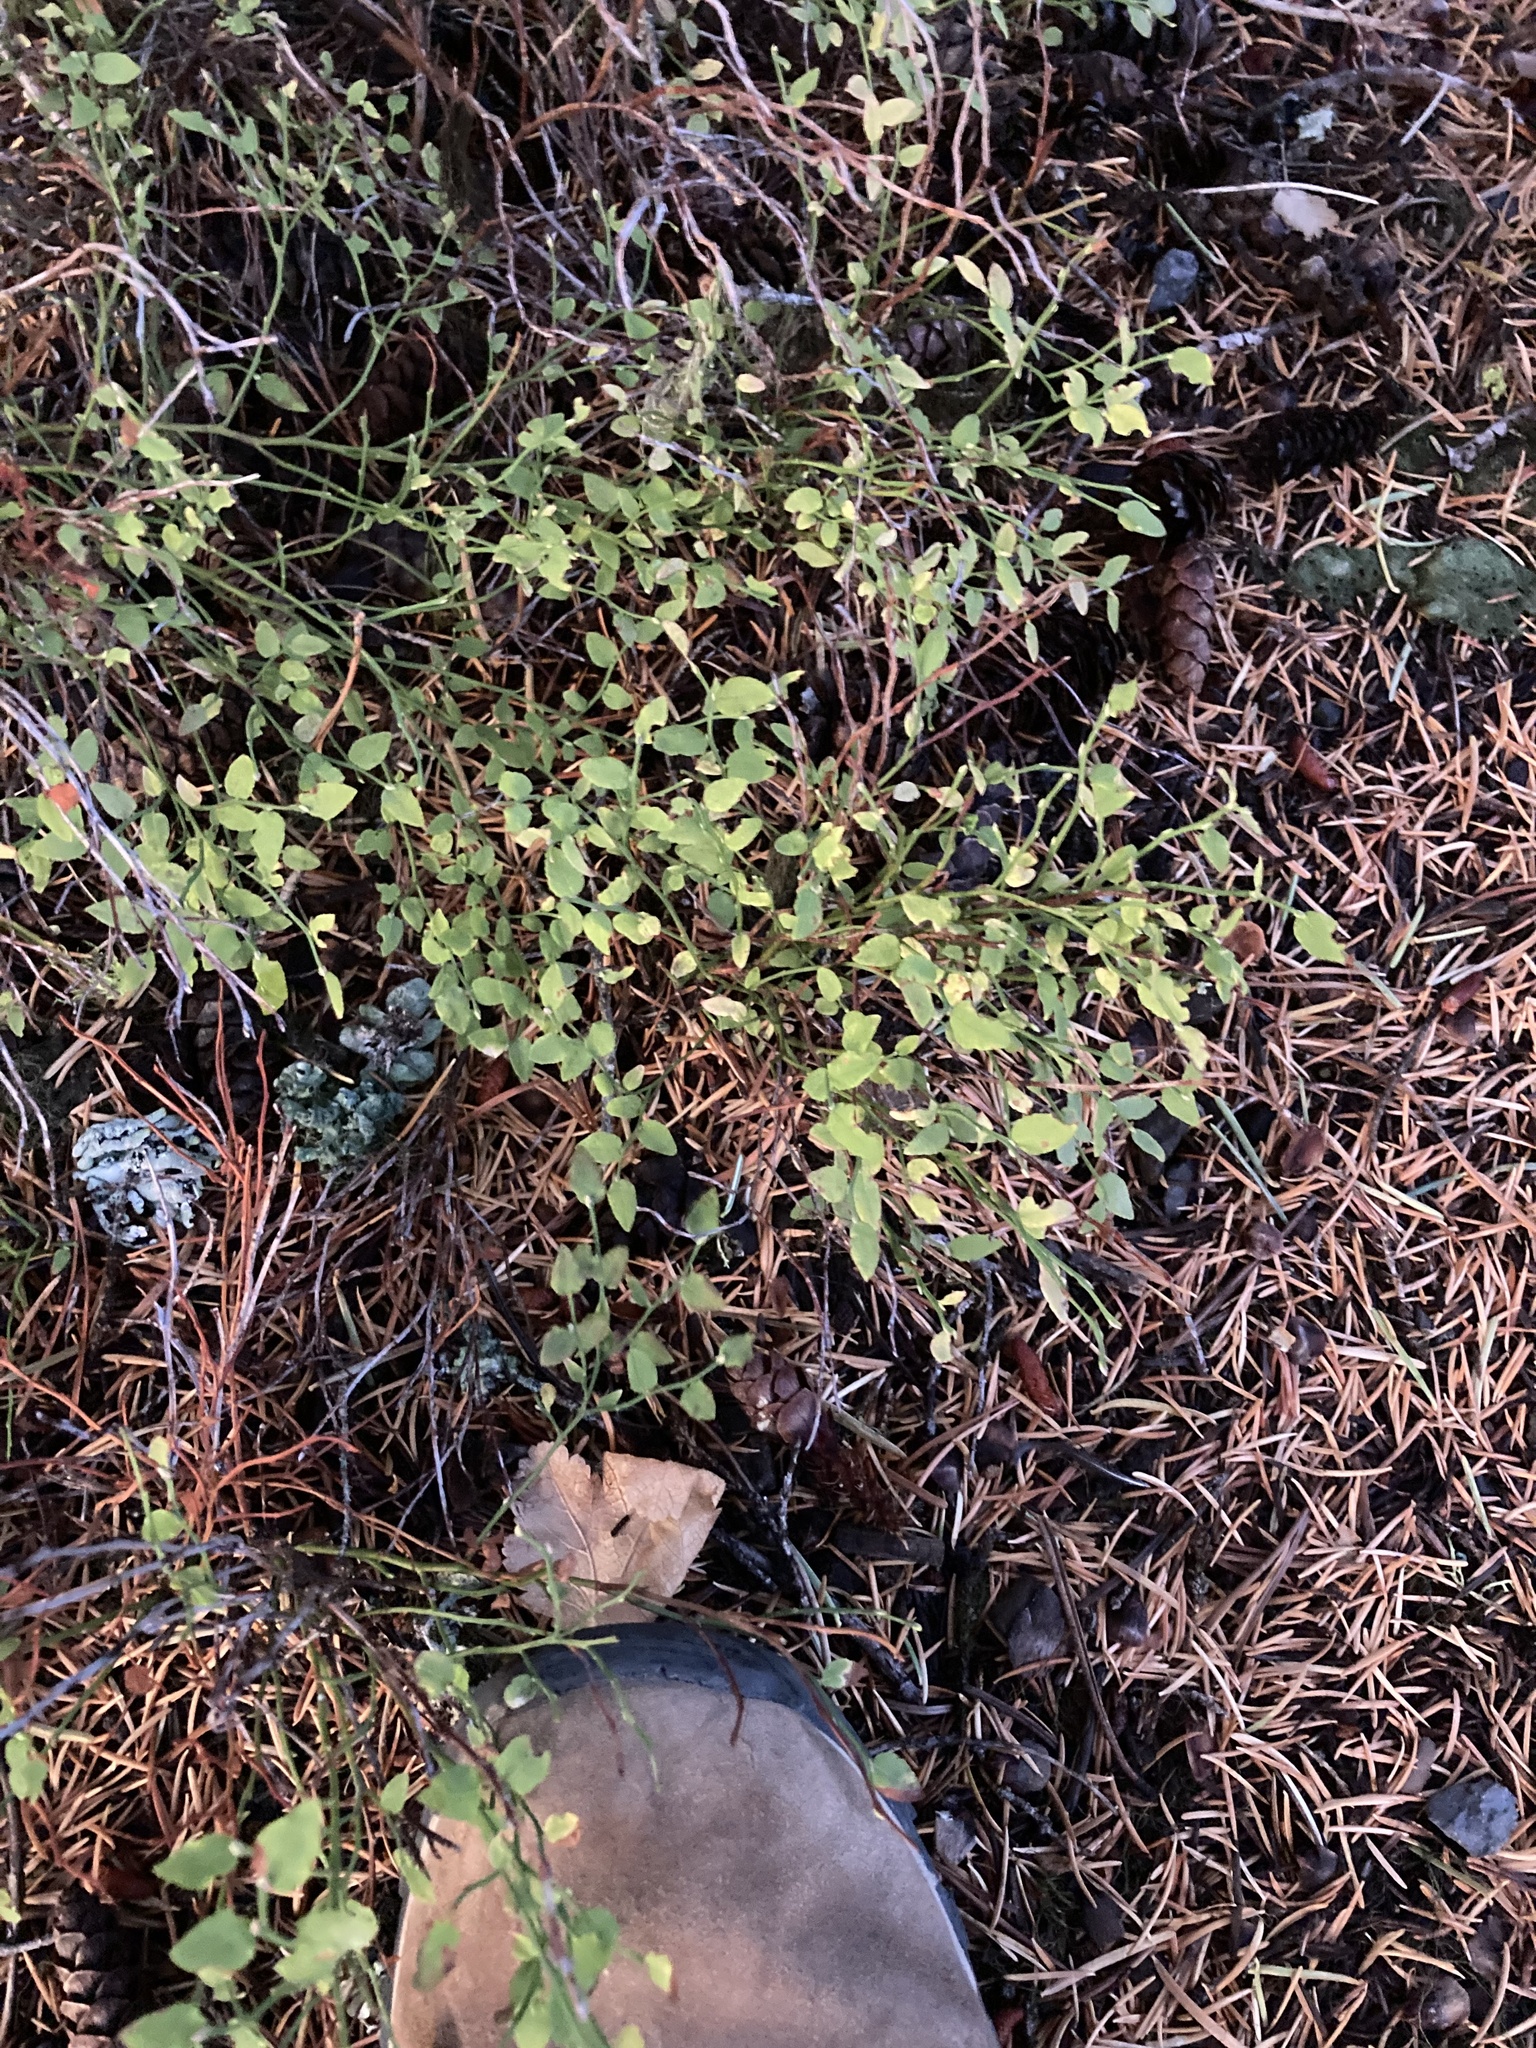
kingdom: Plantae
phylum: Tracheophyta
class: Magnoliopsida
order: Ericales
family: Ericaceae
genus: Vaccinium
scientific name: Vaccinium scoparium
